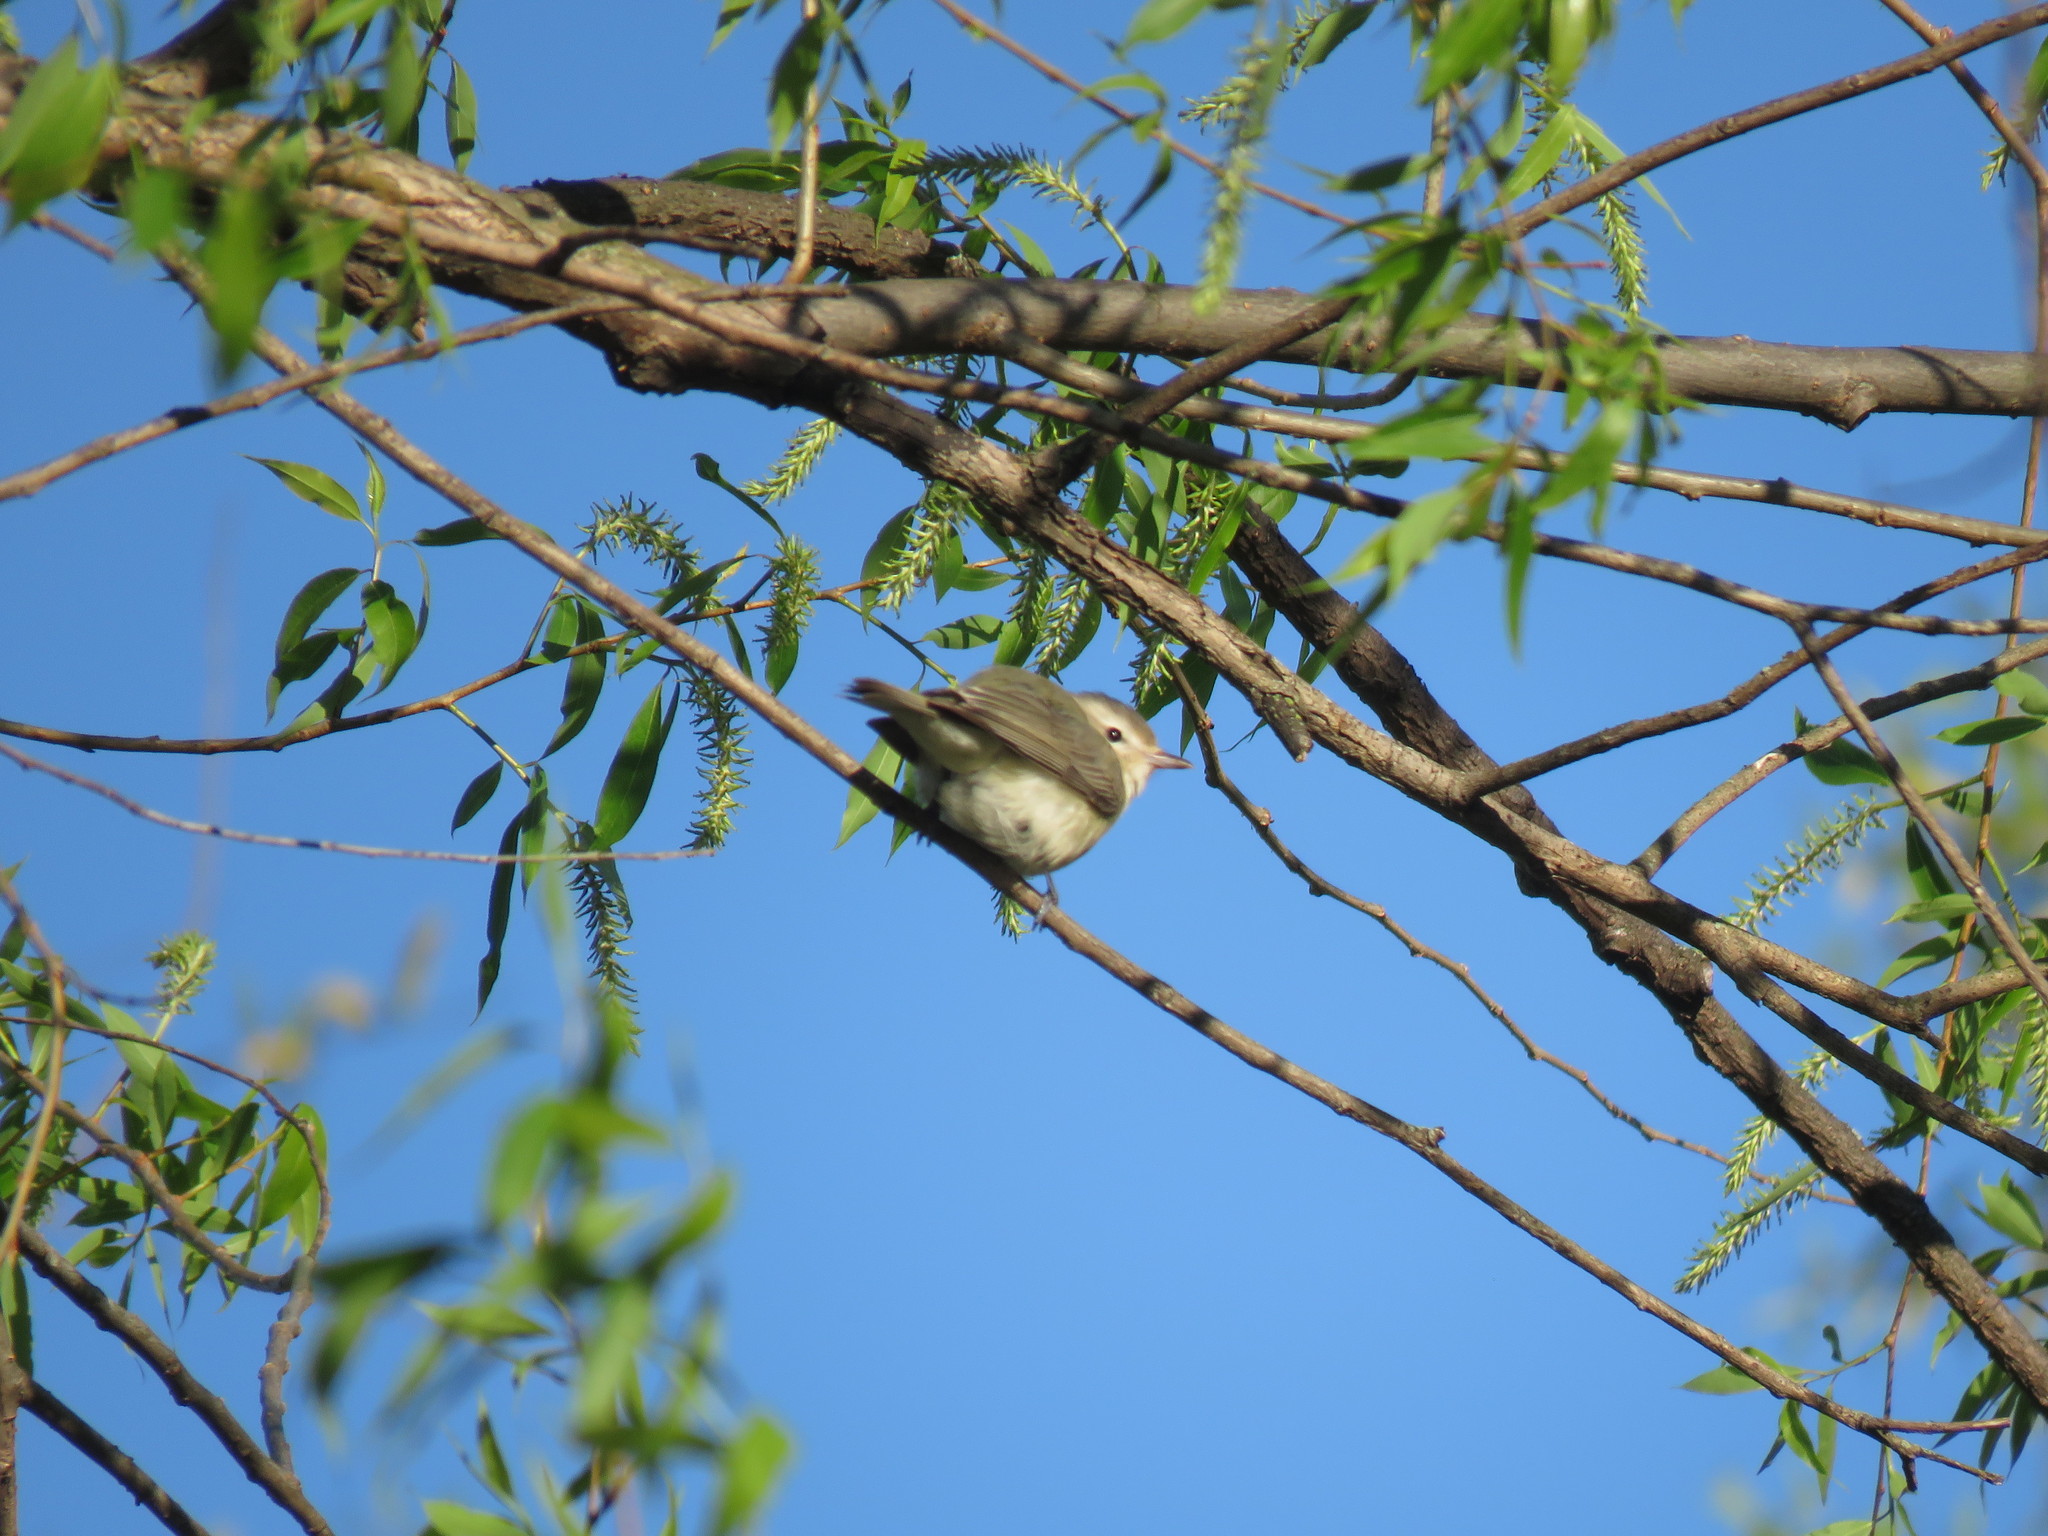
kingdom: Animalia
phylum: Chordata
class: Aves
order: Passeriformes
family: Vireonidae
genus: Vireo
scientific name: Vireo gilvus
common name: Warbling vireo
